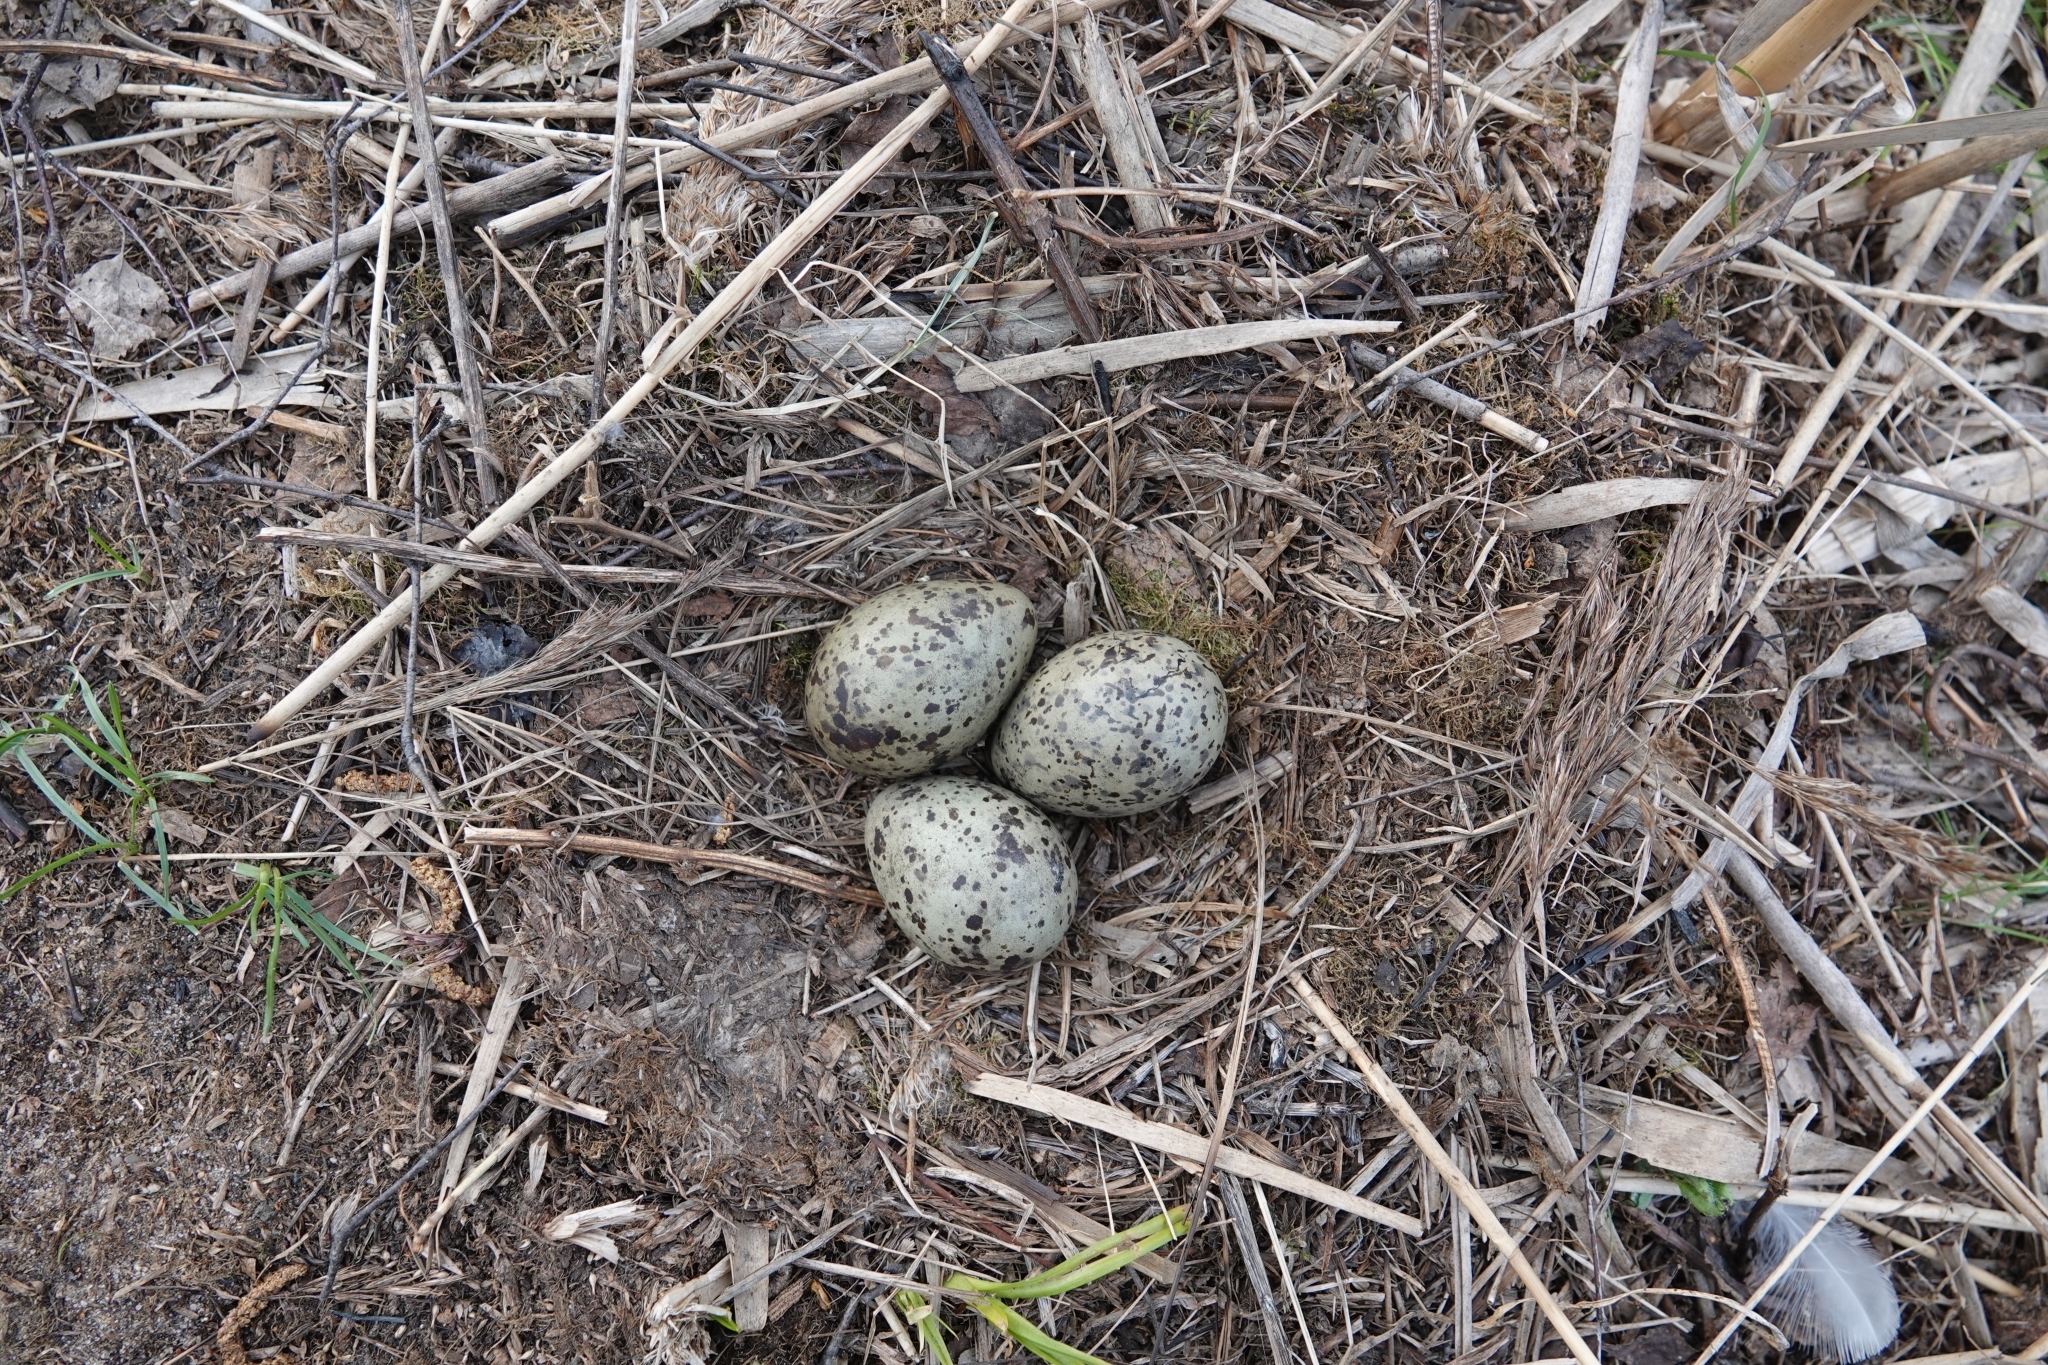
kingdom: Animalia
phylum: Chordata
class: Aves
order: Charadriiformes
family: Laridae
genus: Larus
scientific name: Larus canus
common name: Mew gull
